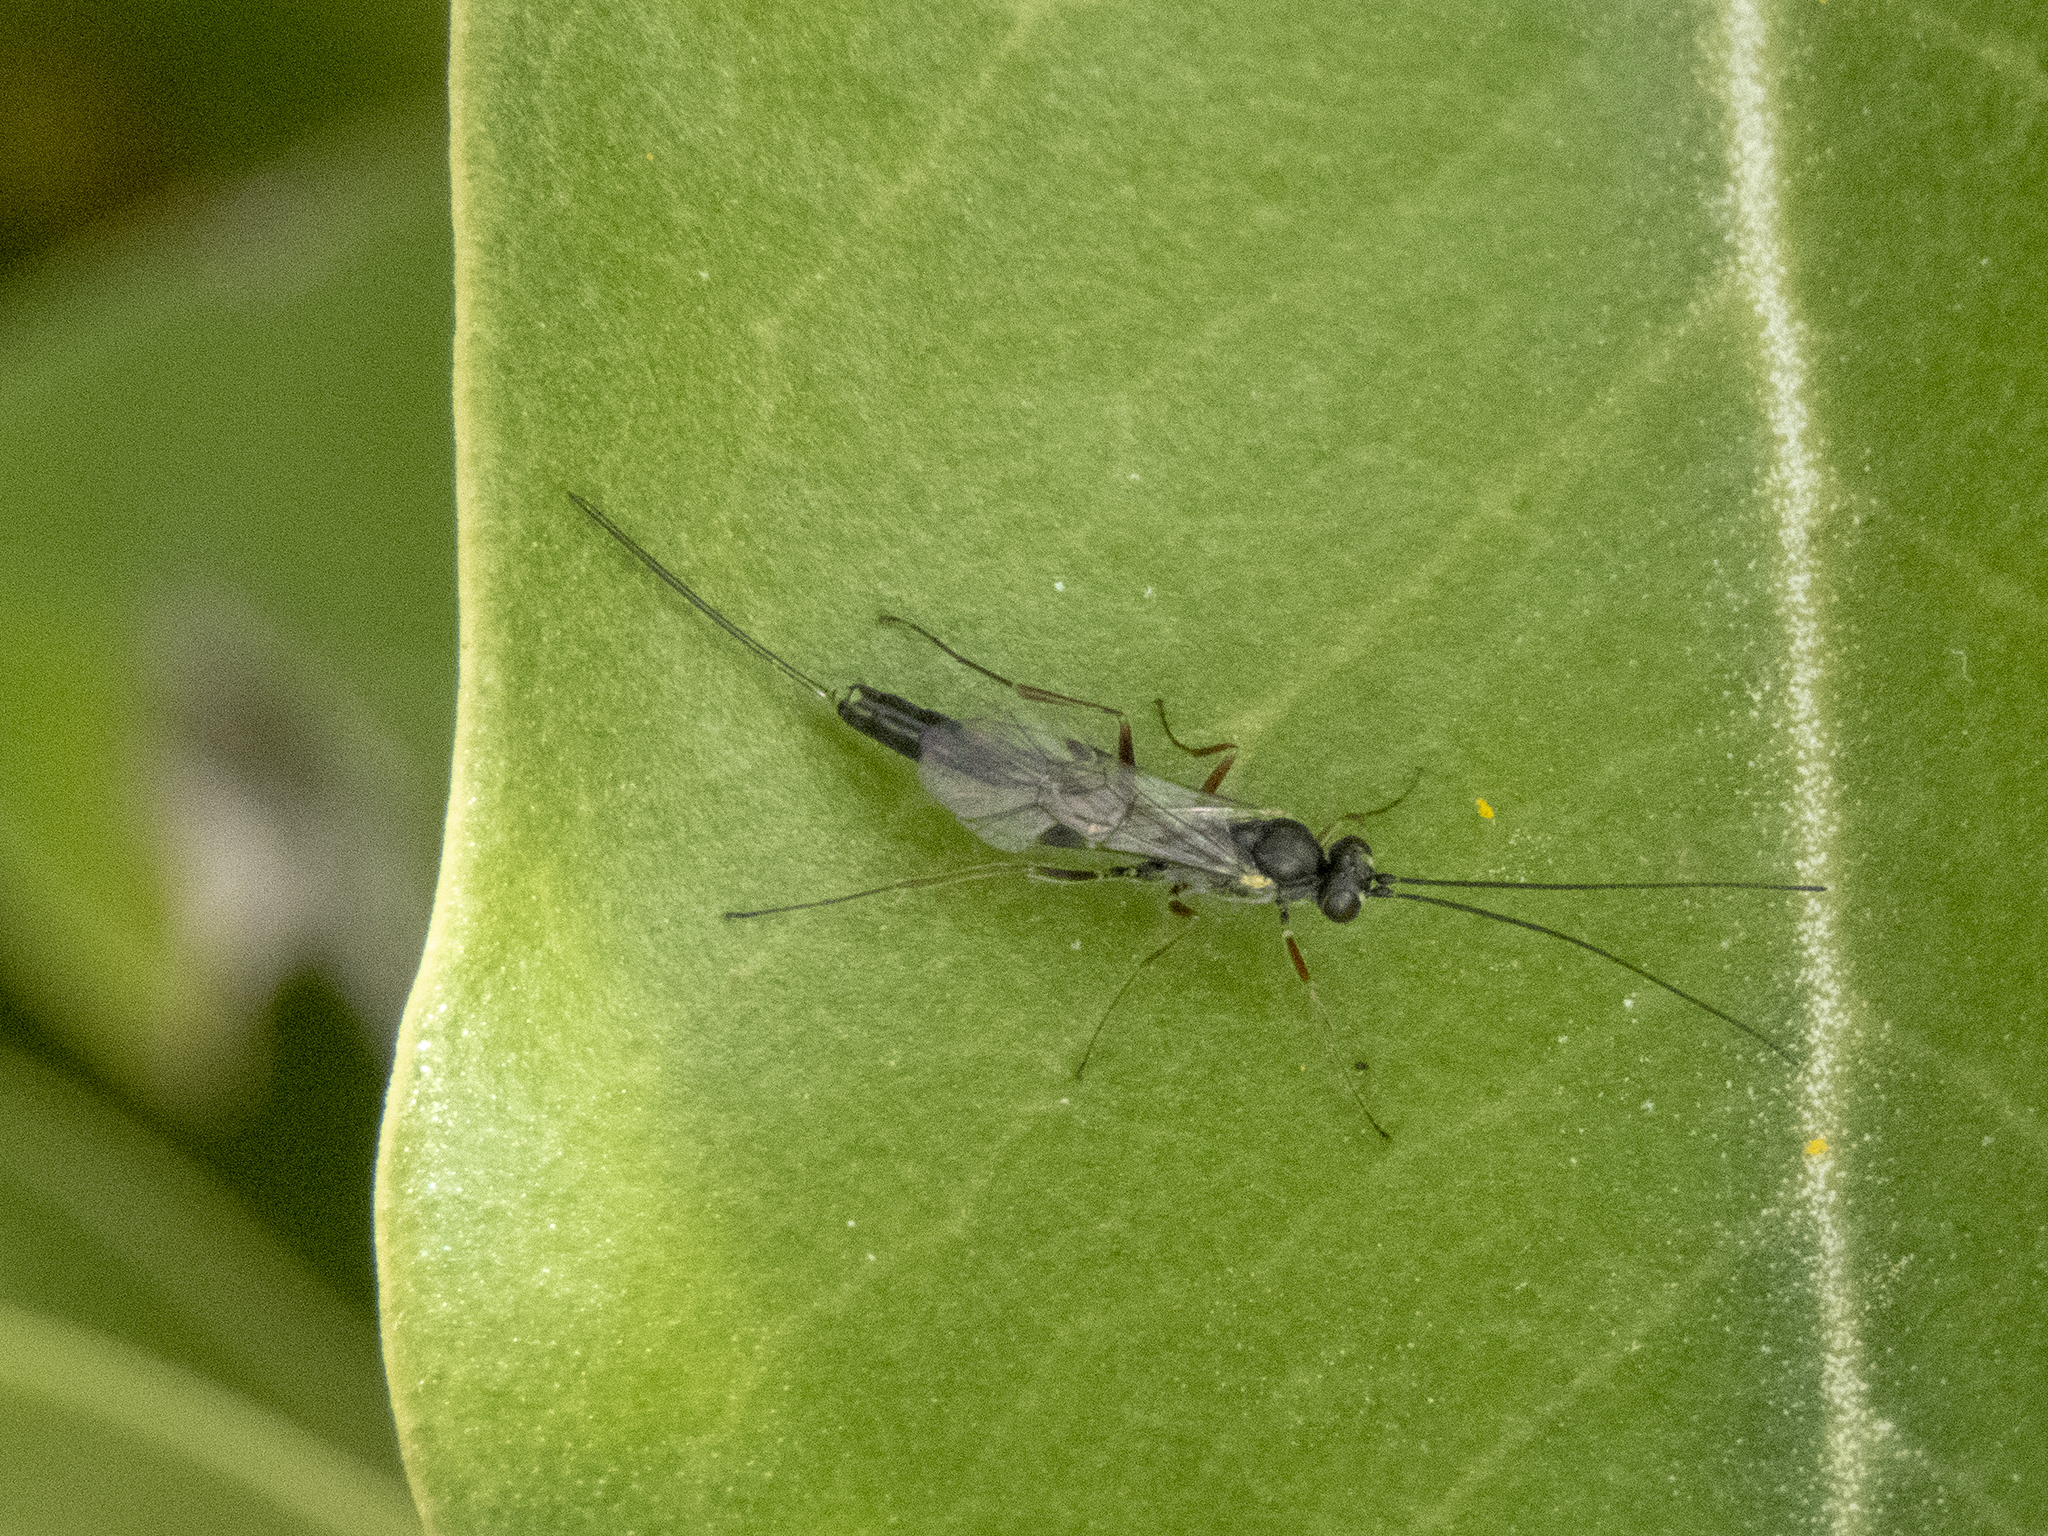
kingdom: Animalia
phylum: Arthropoda
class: Insecta
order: Hymenoptera
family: Ichneumonidae
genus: Trathala
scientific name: Trathala agnina
